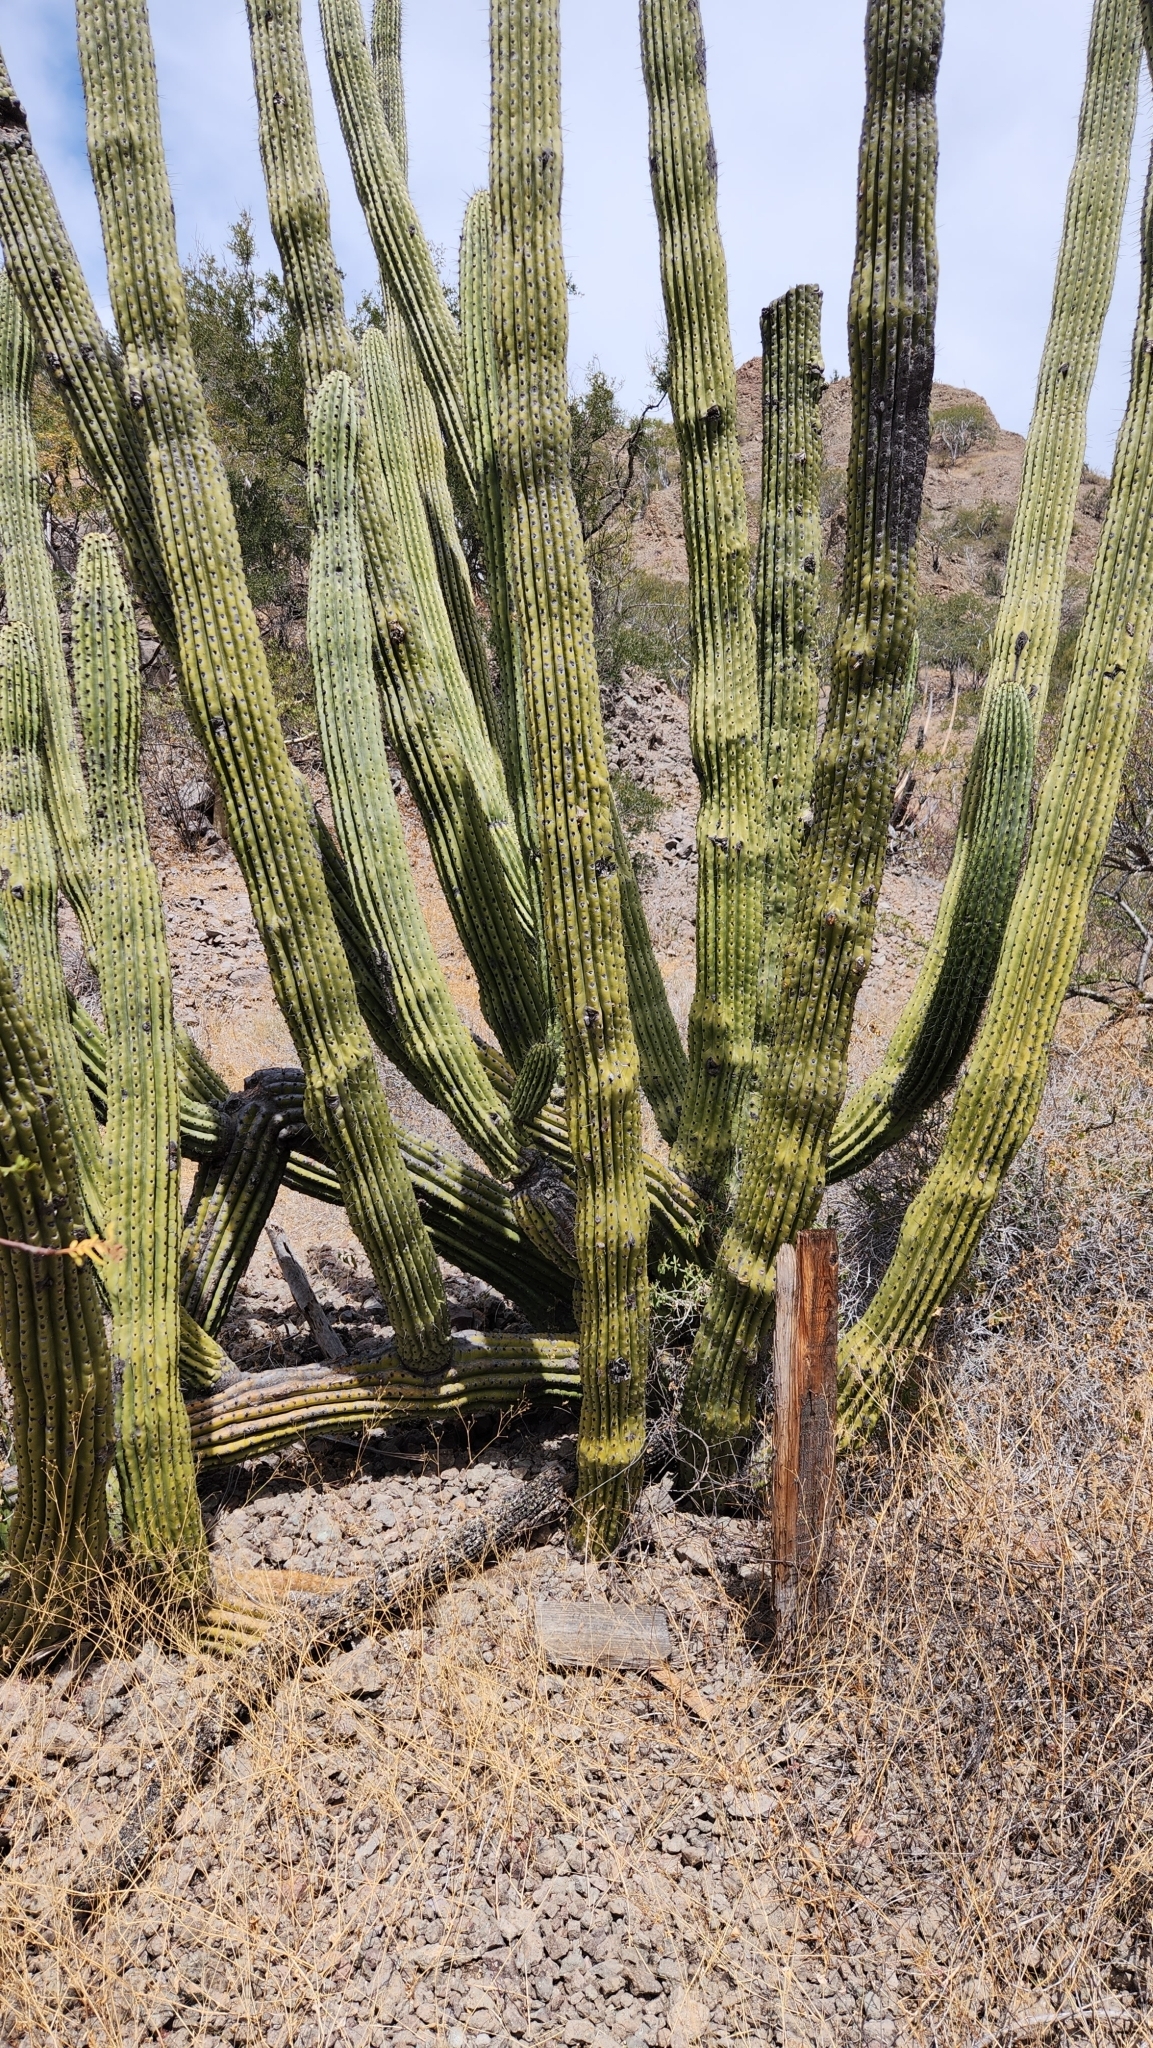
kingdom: Plantae
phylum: Tracheophyta
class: Magnoliopsida
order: Caryophyllales
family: Cactaceae
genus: Stenocereus
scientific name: Stenocereus thurberi
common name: Organ pipe cactus
